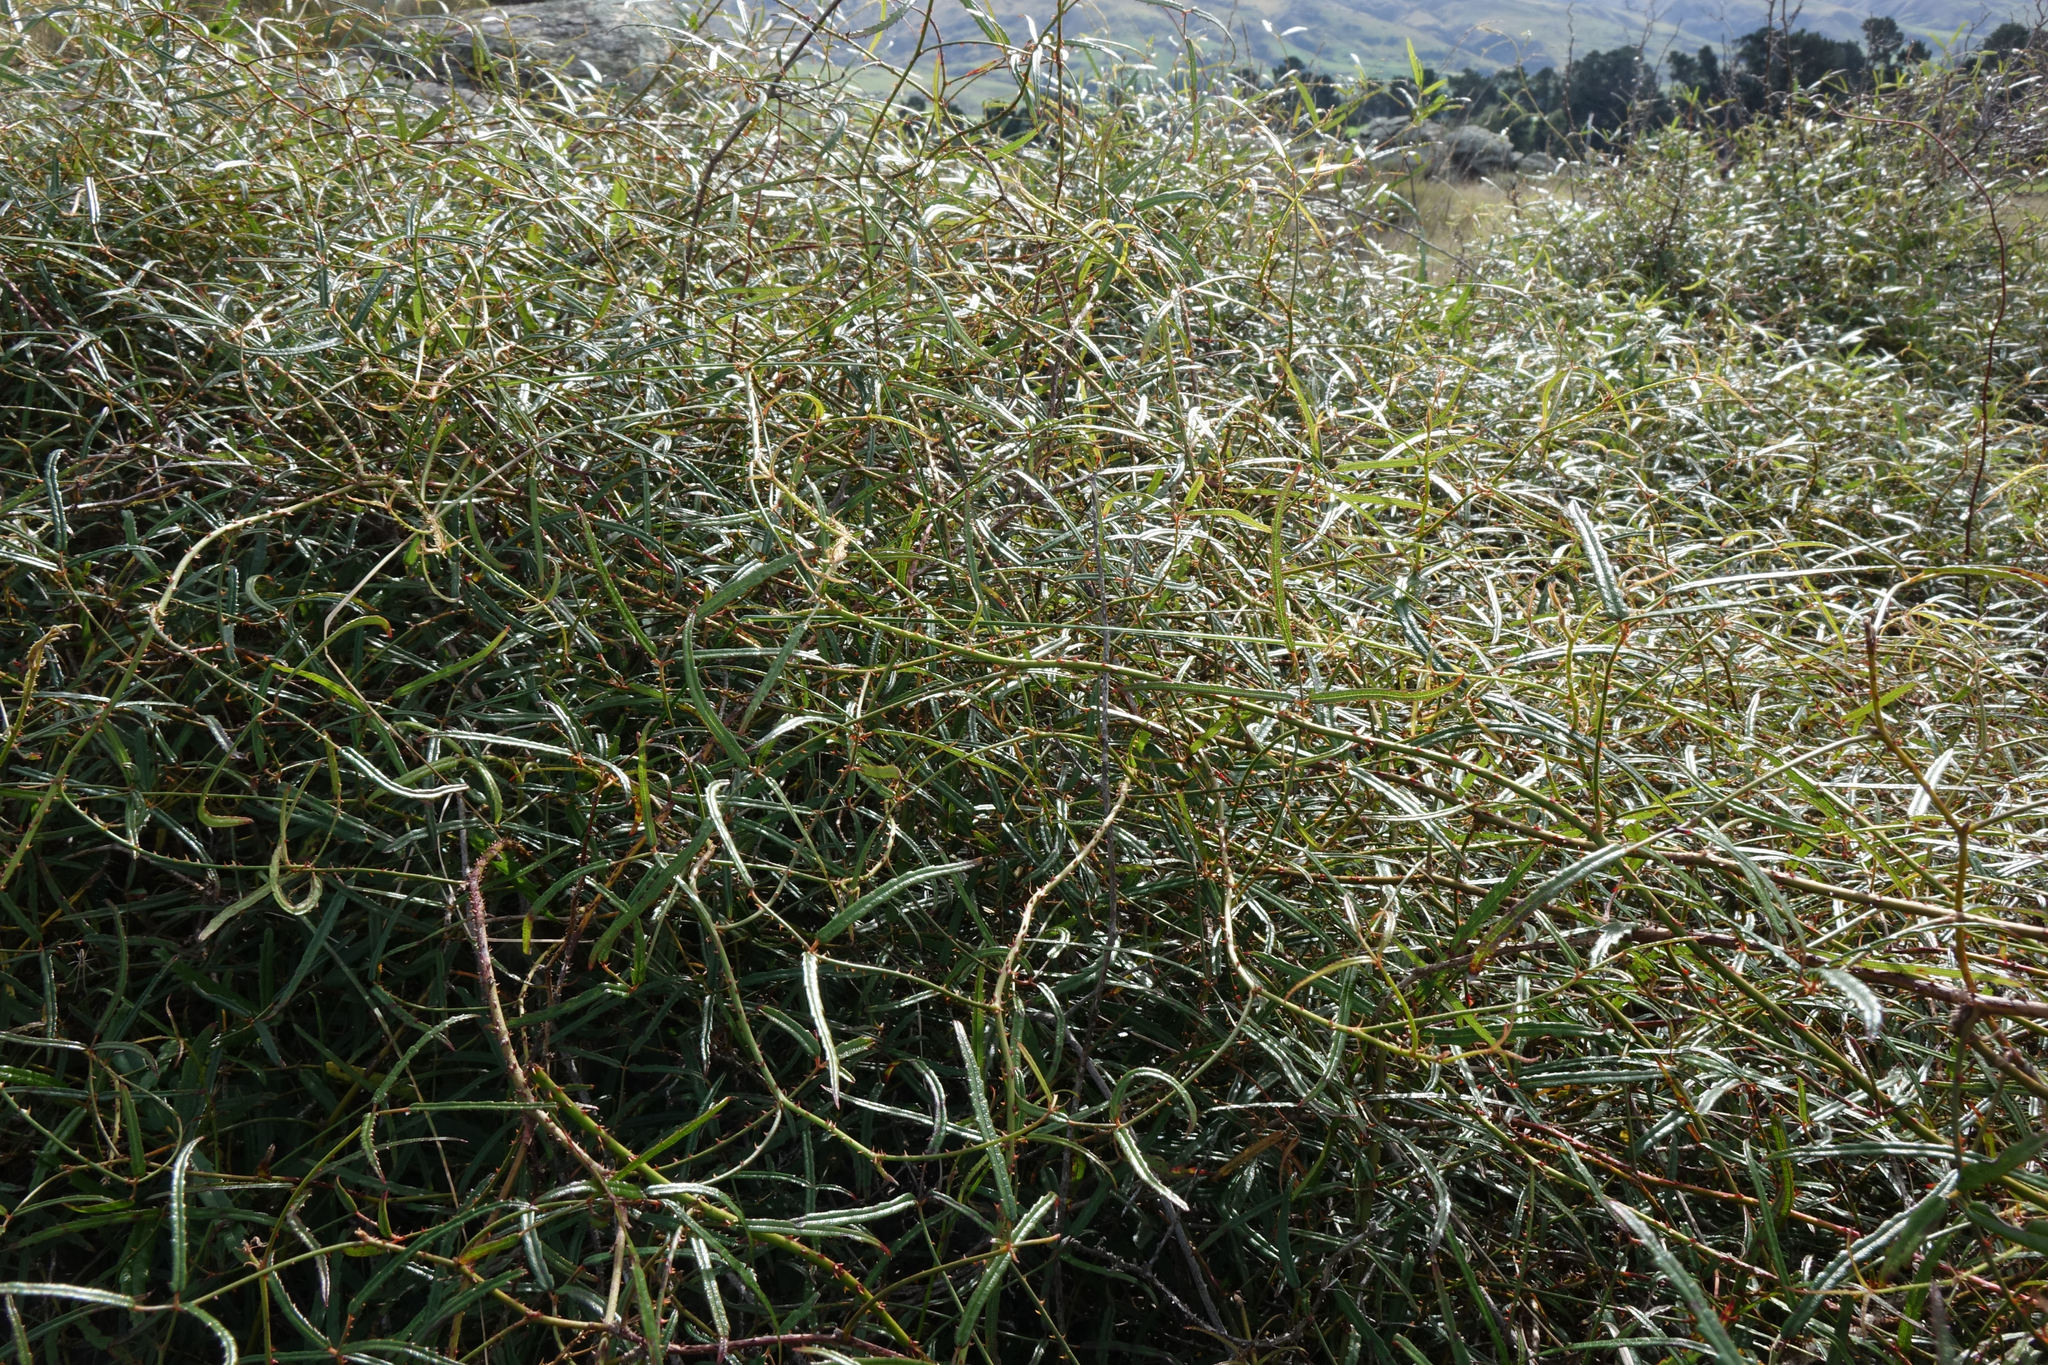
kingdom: Plantae
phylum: Tracheophyta
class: Magnoliopsida
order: Rosales
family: Rosaceae
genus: Rubus
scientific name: Rubus schmidelioides
